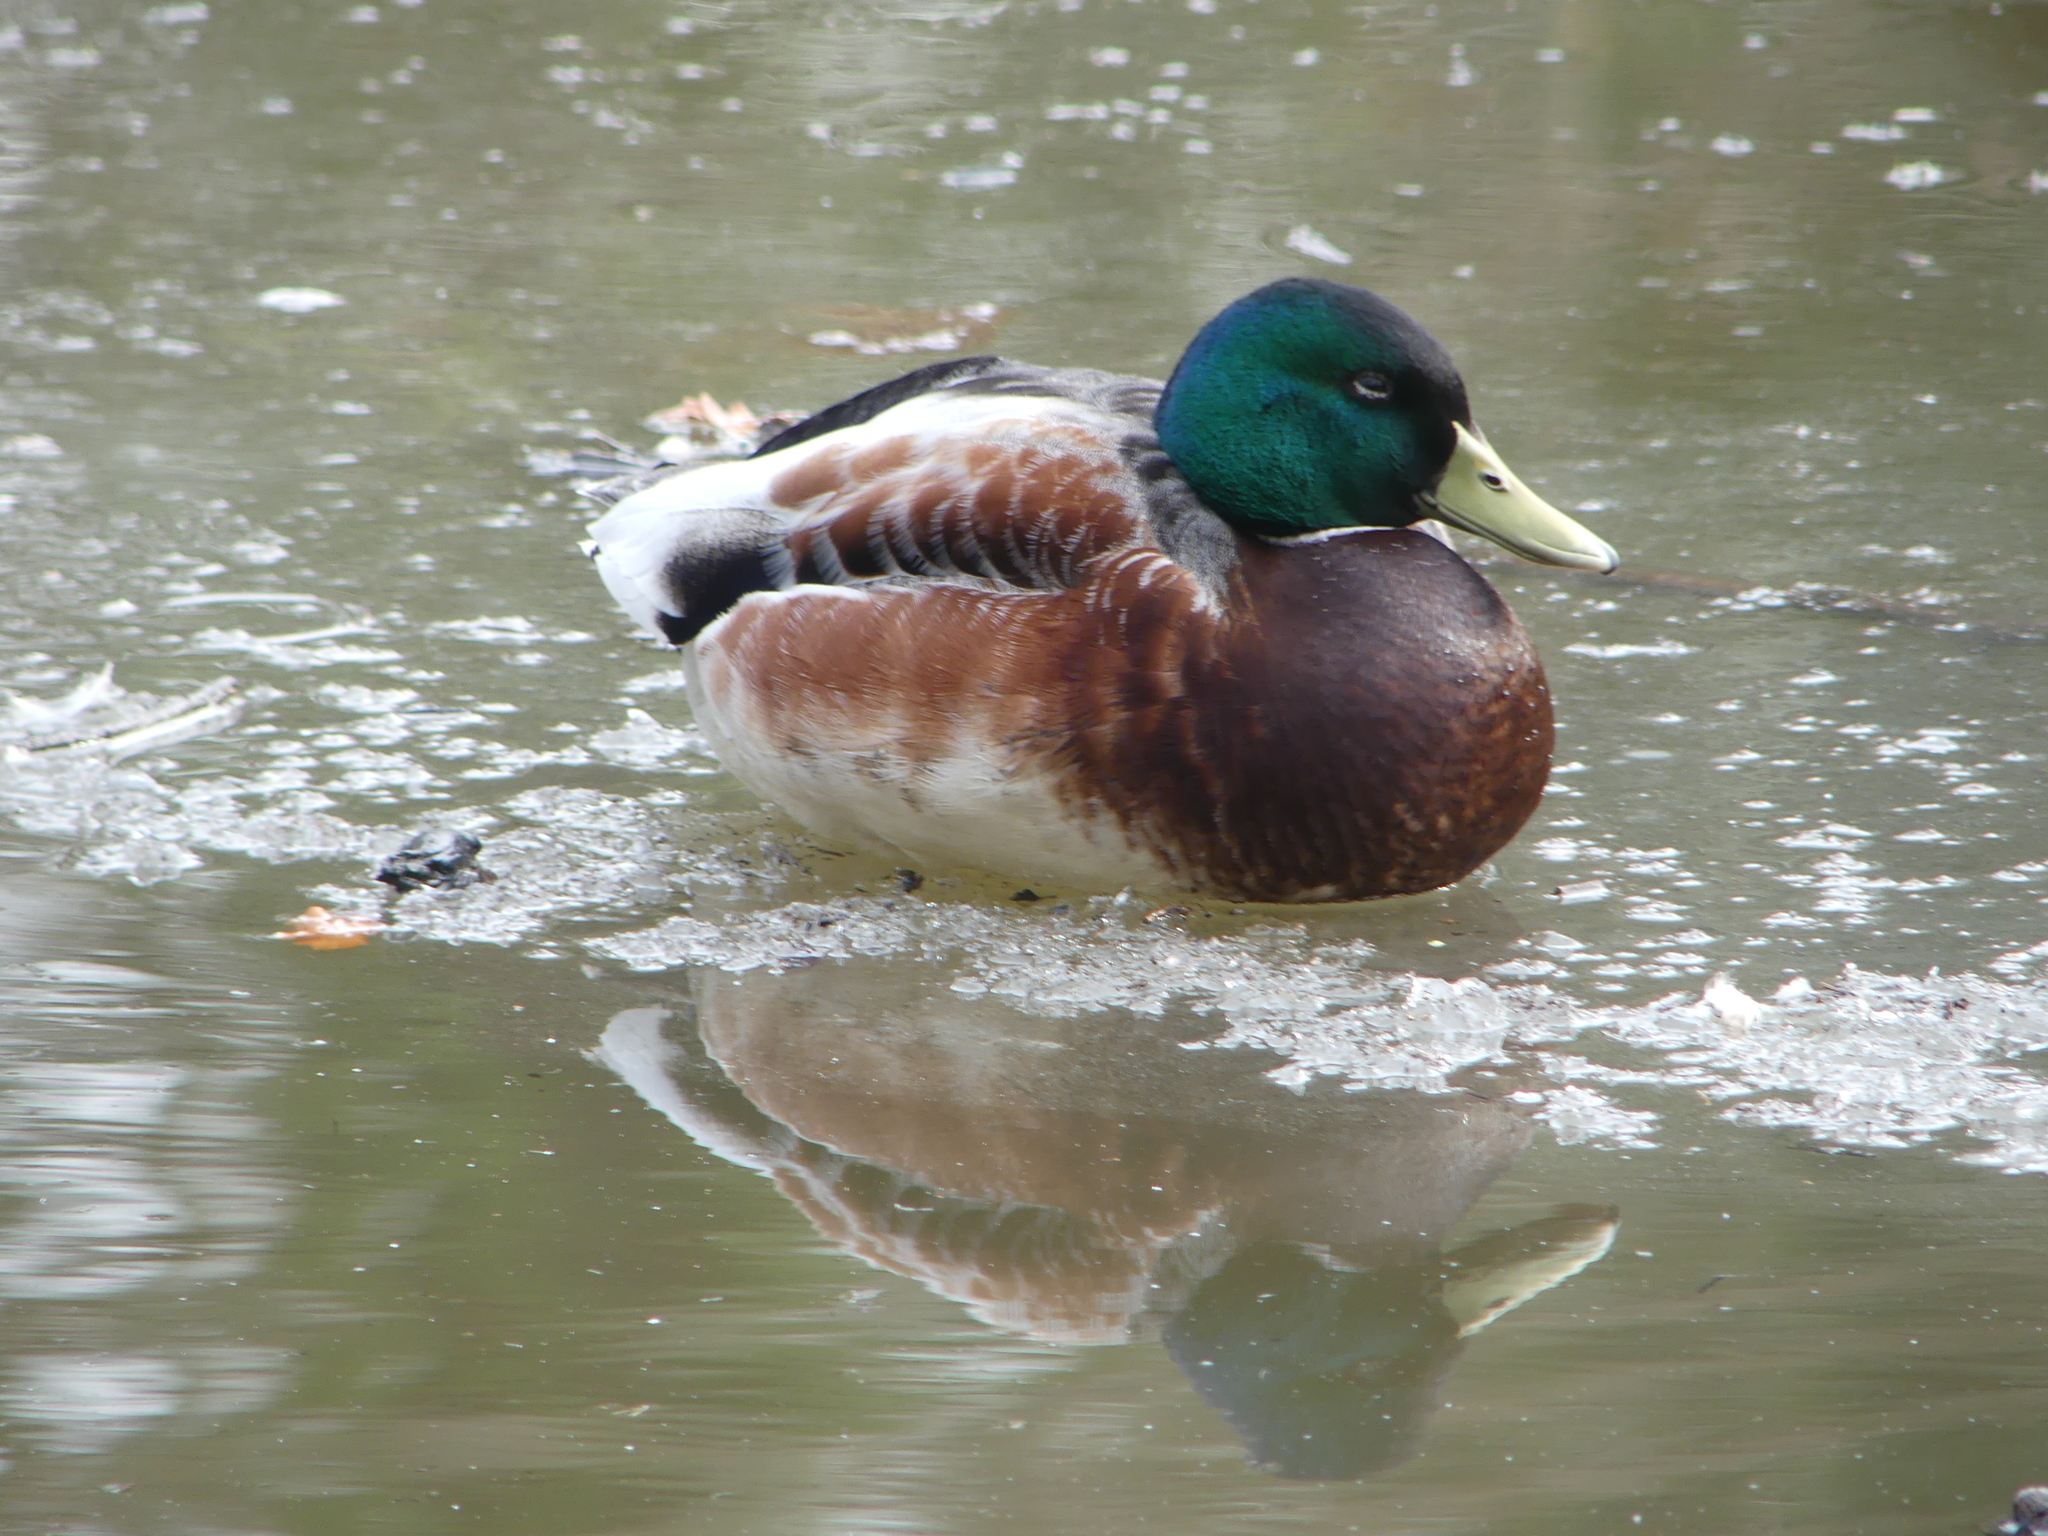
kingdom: Animalia
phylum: Chordata
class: Aves
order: Anseriformes
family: Anatidae
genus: Anas
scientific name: Anas platyrhynchos
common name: Mallard
